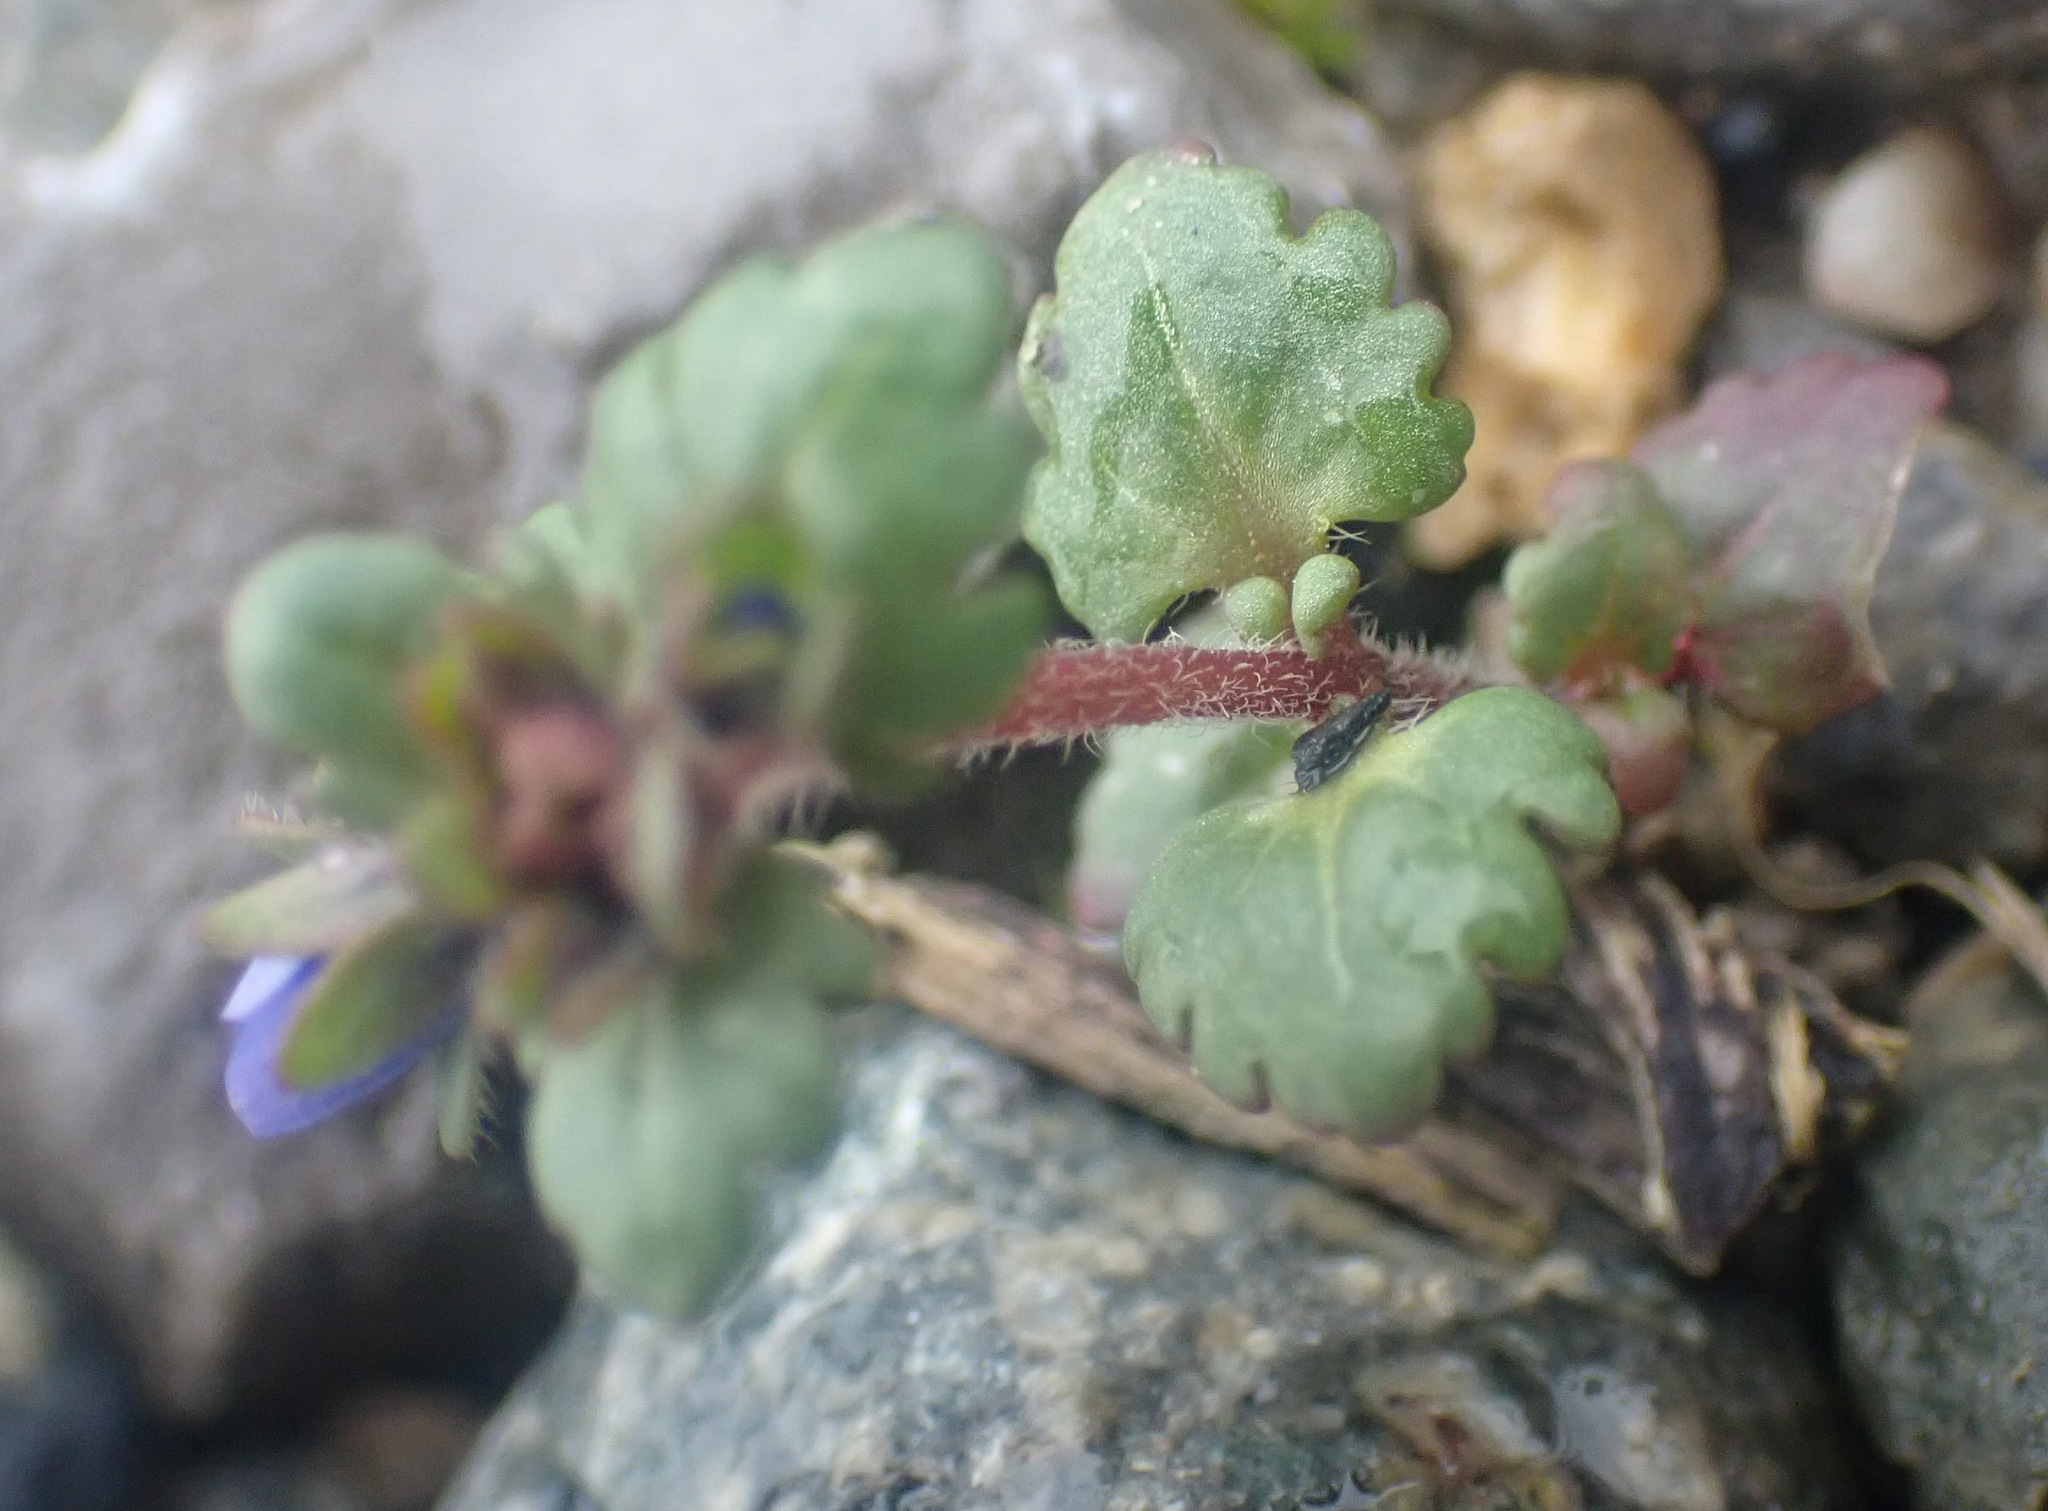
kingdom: Plantae
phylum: Tracheophyta
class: Magnoliopsida
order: Lamiales
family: Plantaginaceae
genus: Veronica
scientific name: Veronica praecox
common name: Breckland speedwell
